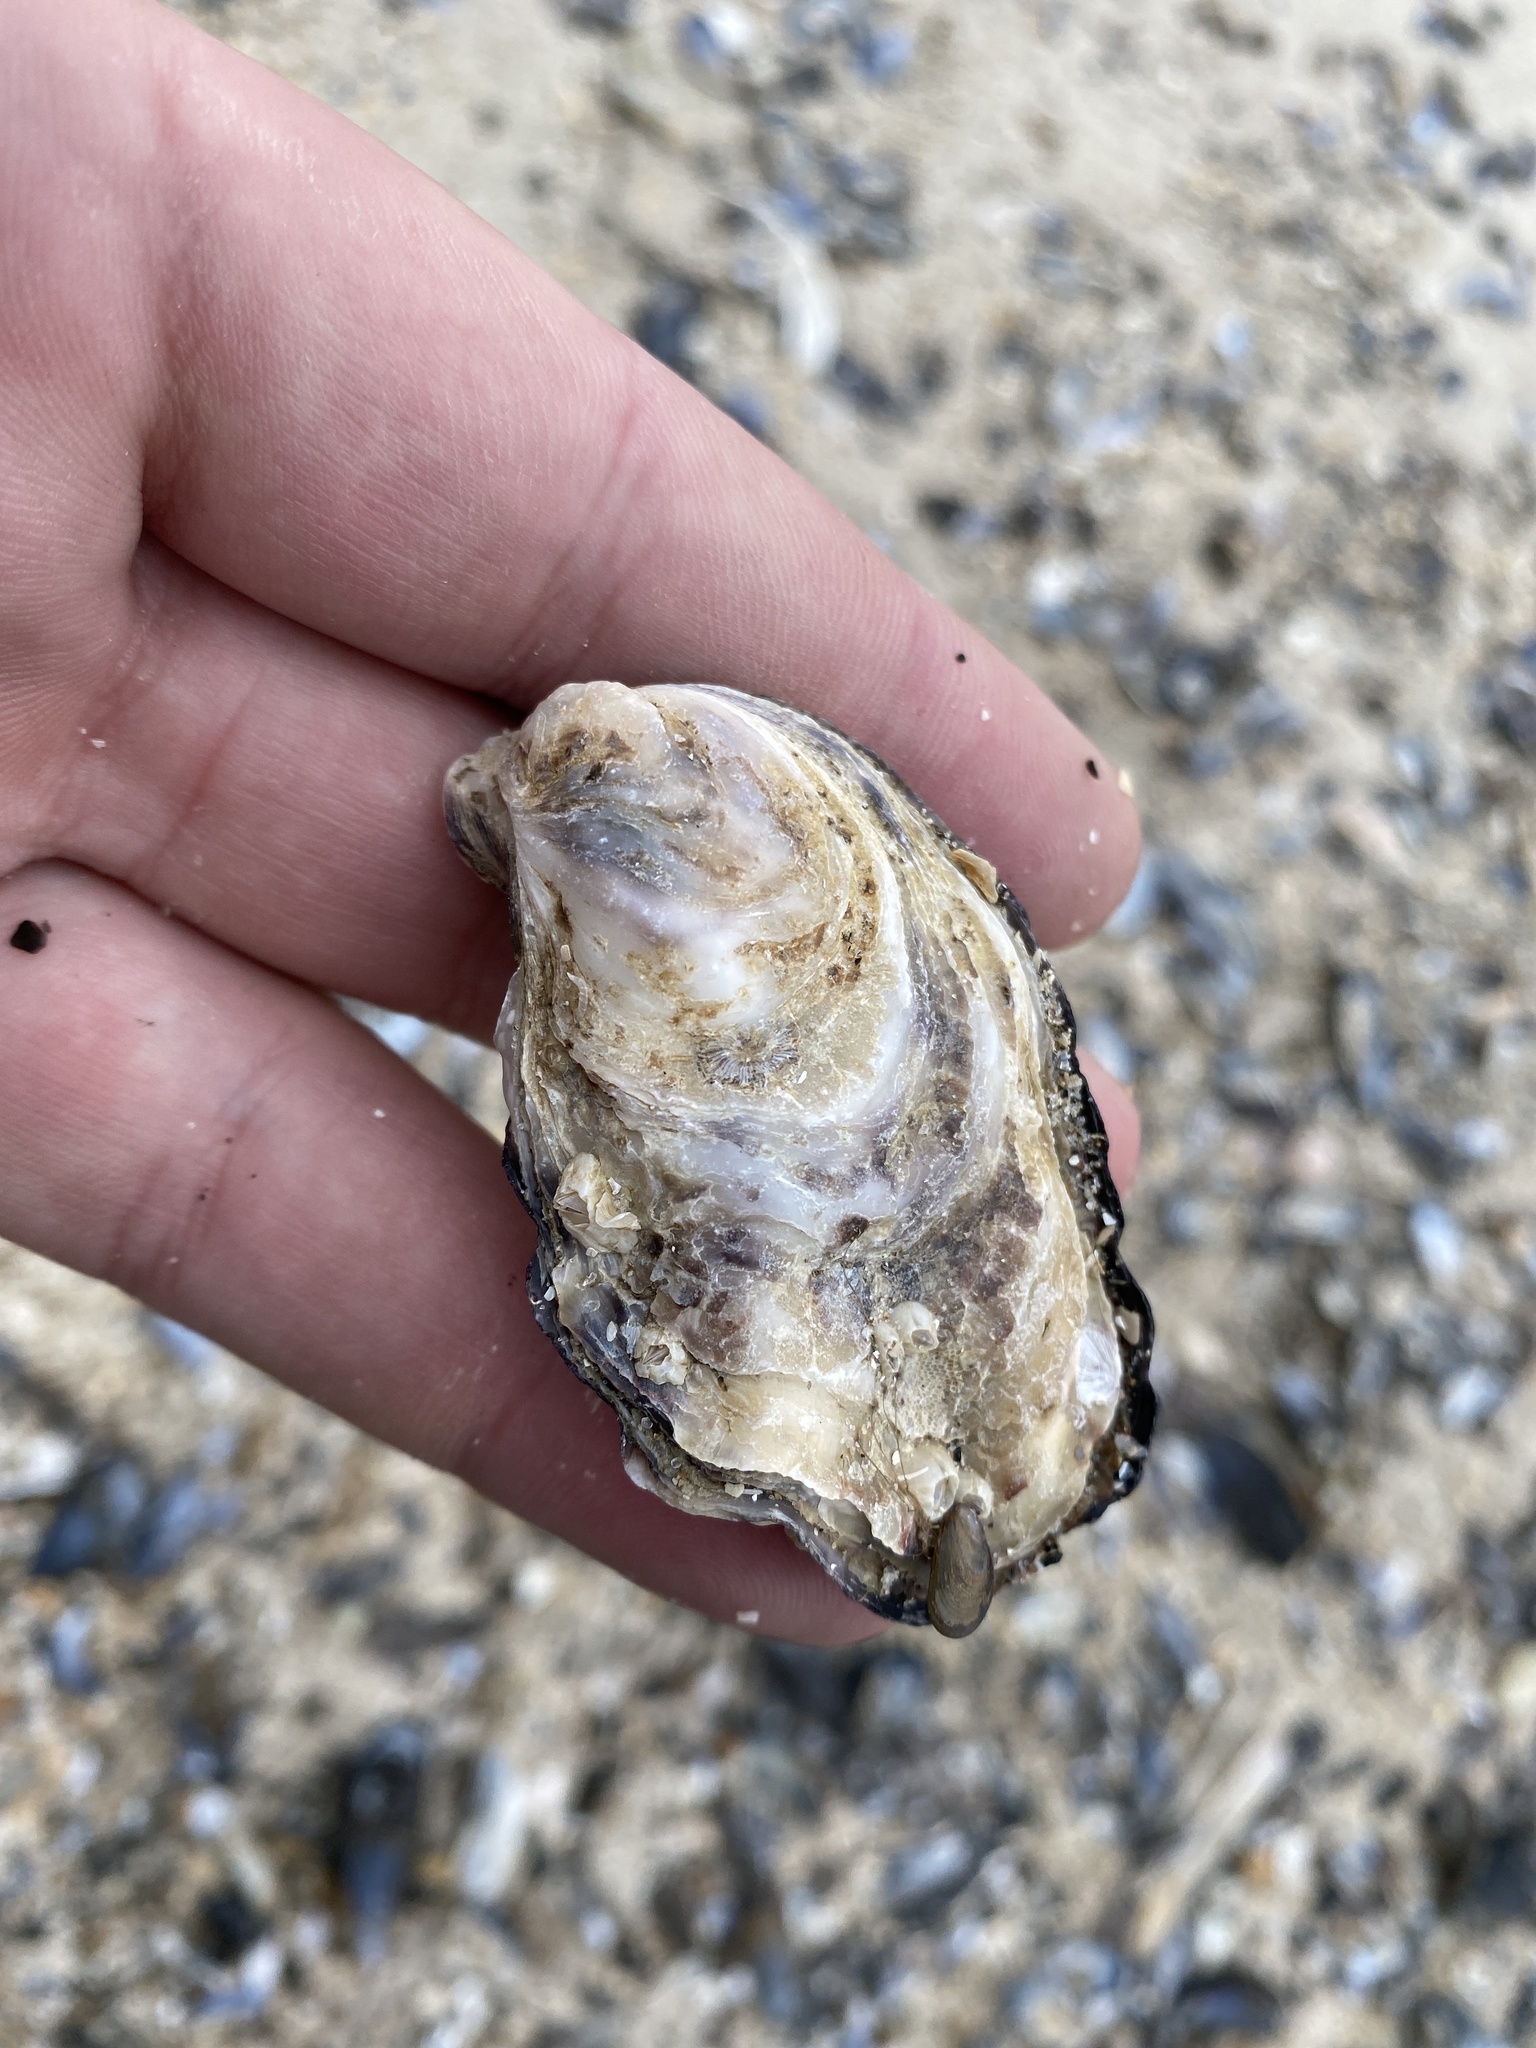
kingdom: Animalia
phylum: Mollusca
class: Bivalvia
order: Ostreida
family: Ostreidae
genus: Magallana
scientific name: Magallana gigas
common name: Pacific oyster
